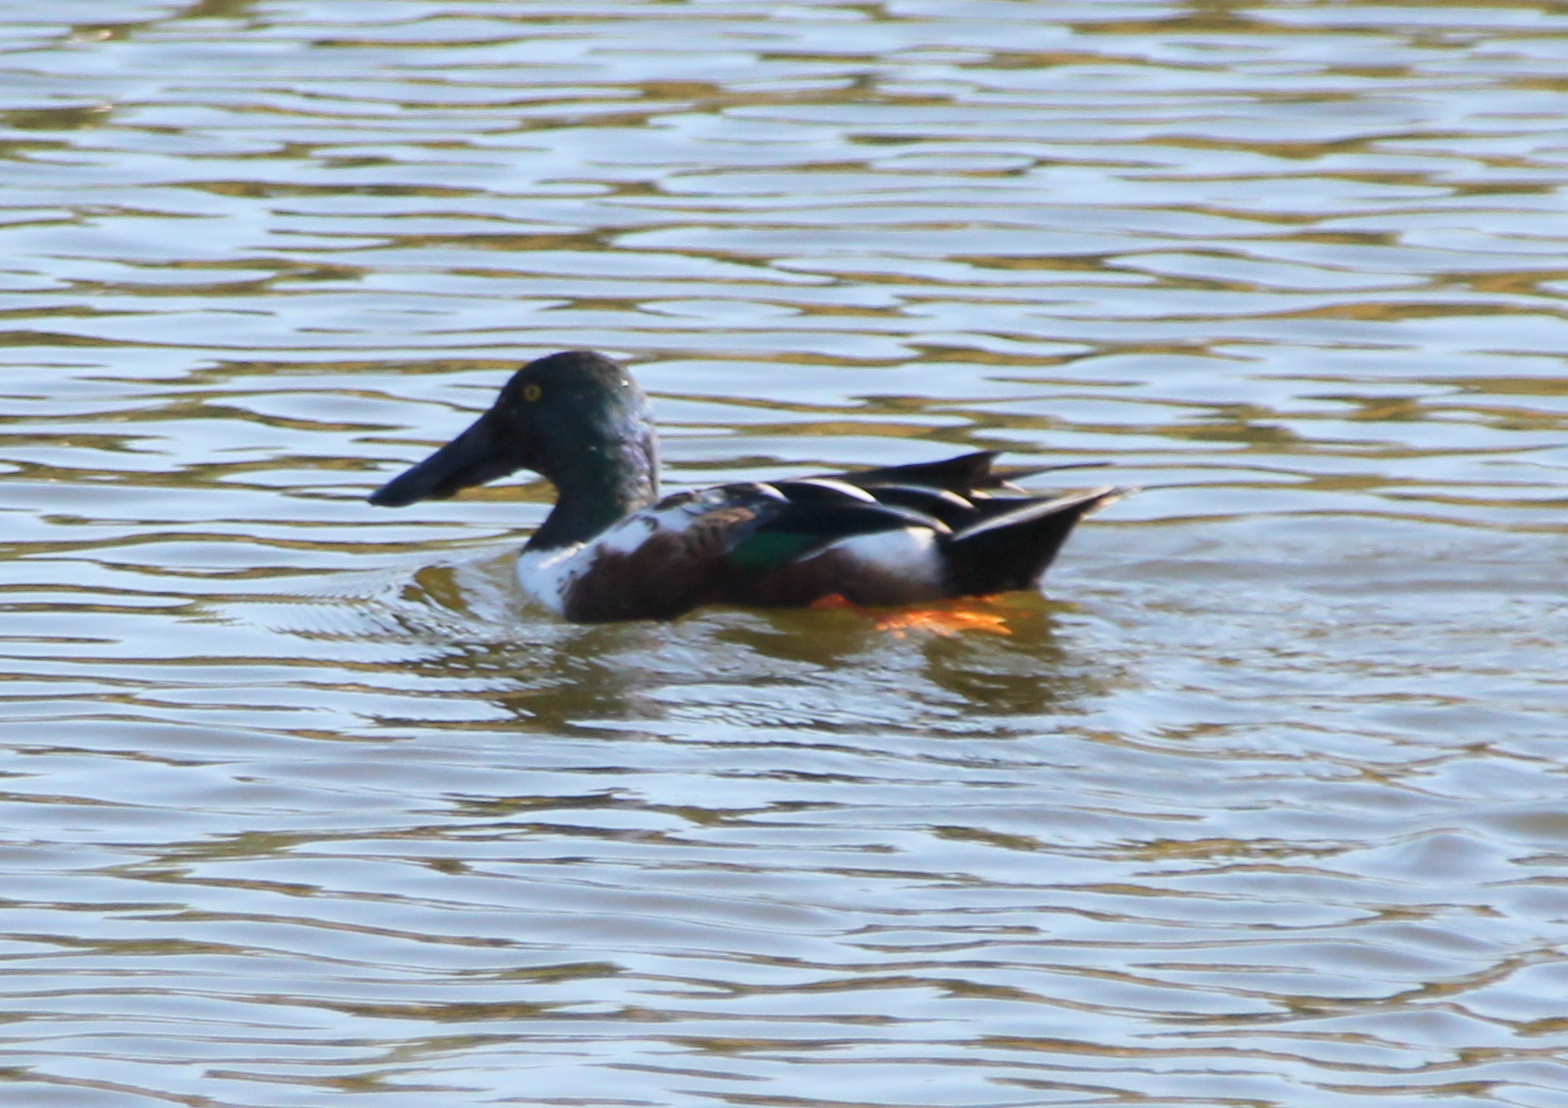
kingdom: Animalia
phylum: Chordata
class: Aves
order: Anseriformes
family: Anatidae
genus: Spatula
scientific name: Spatula clypeata
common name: Northern shoveler
